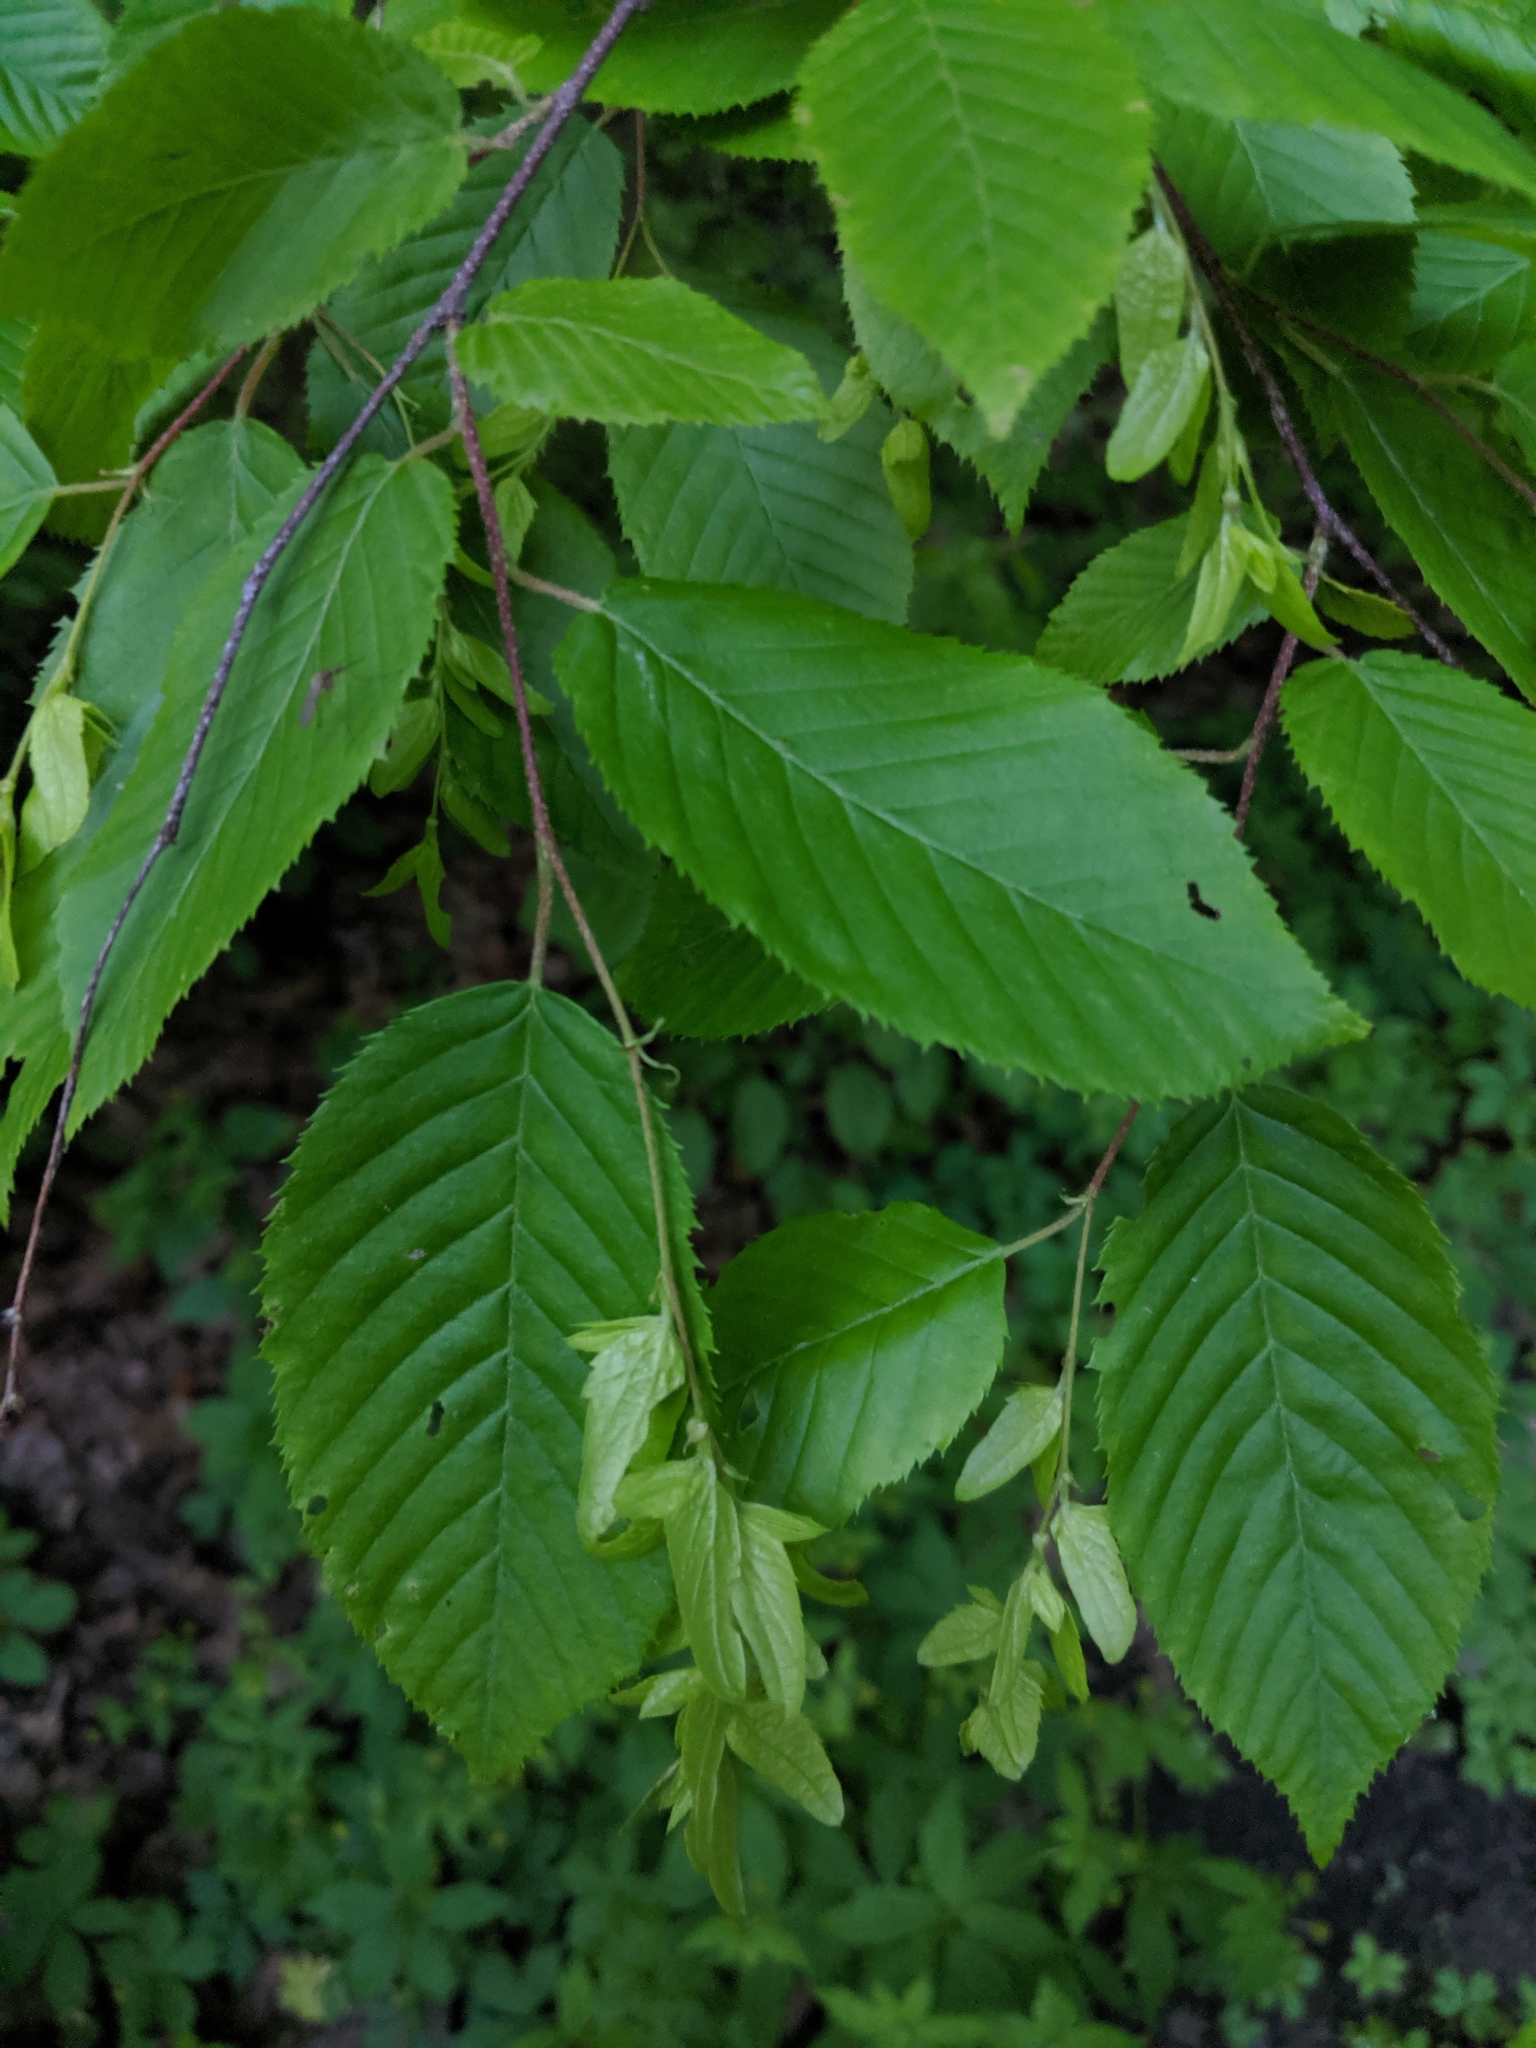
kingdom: Plantae
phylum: Tracheophyta
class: Magnoliopsida
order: Fagales
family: Betulaceae
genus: Carpinus
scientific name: Carpinus caroliniana
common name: American hornbeam
